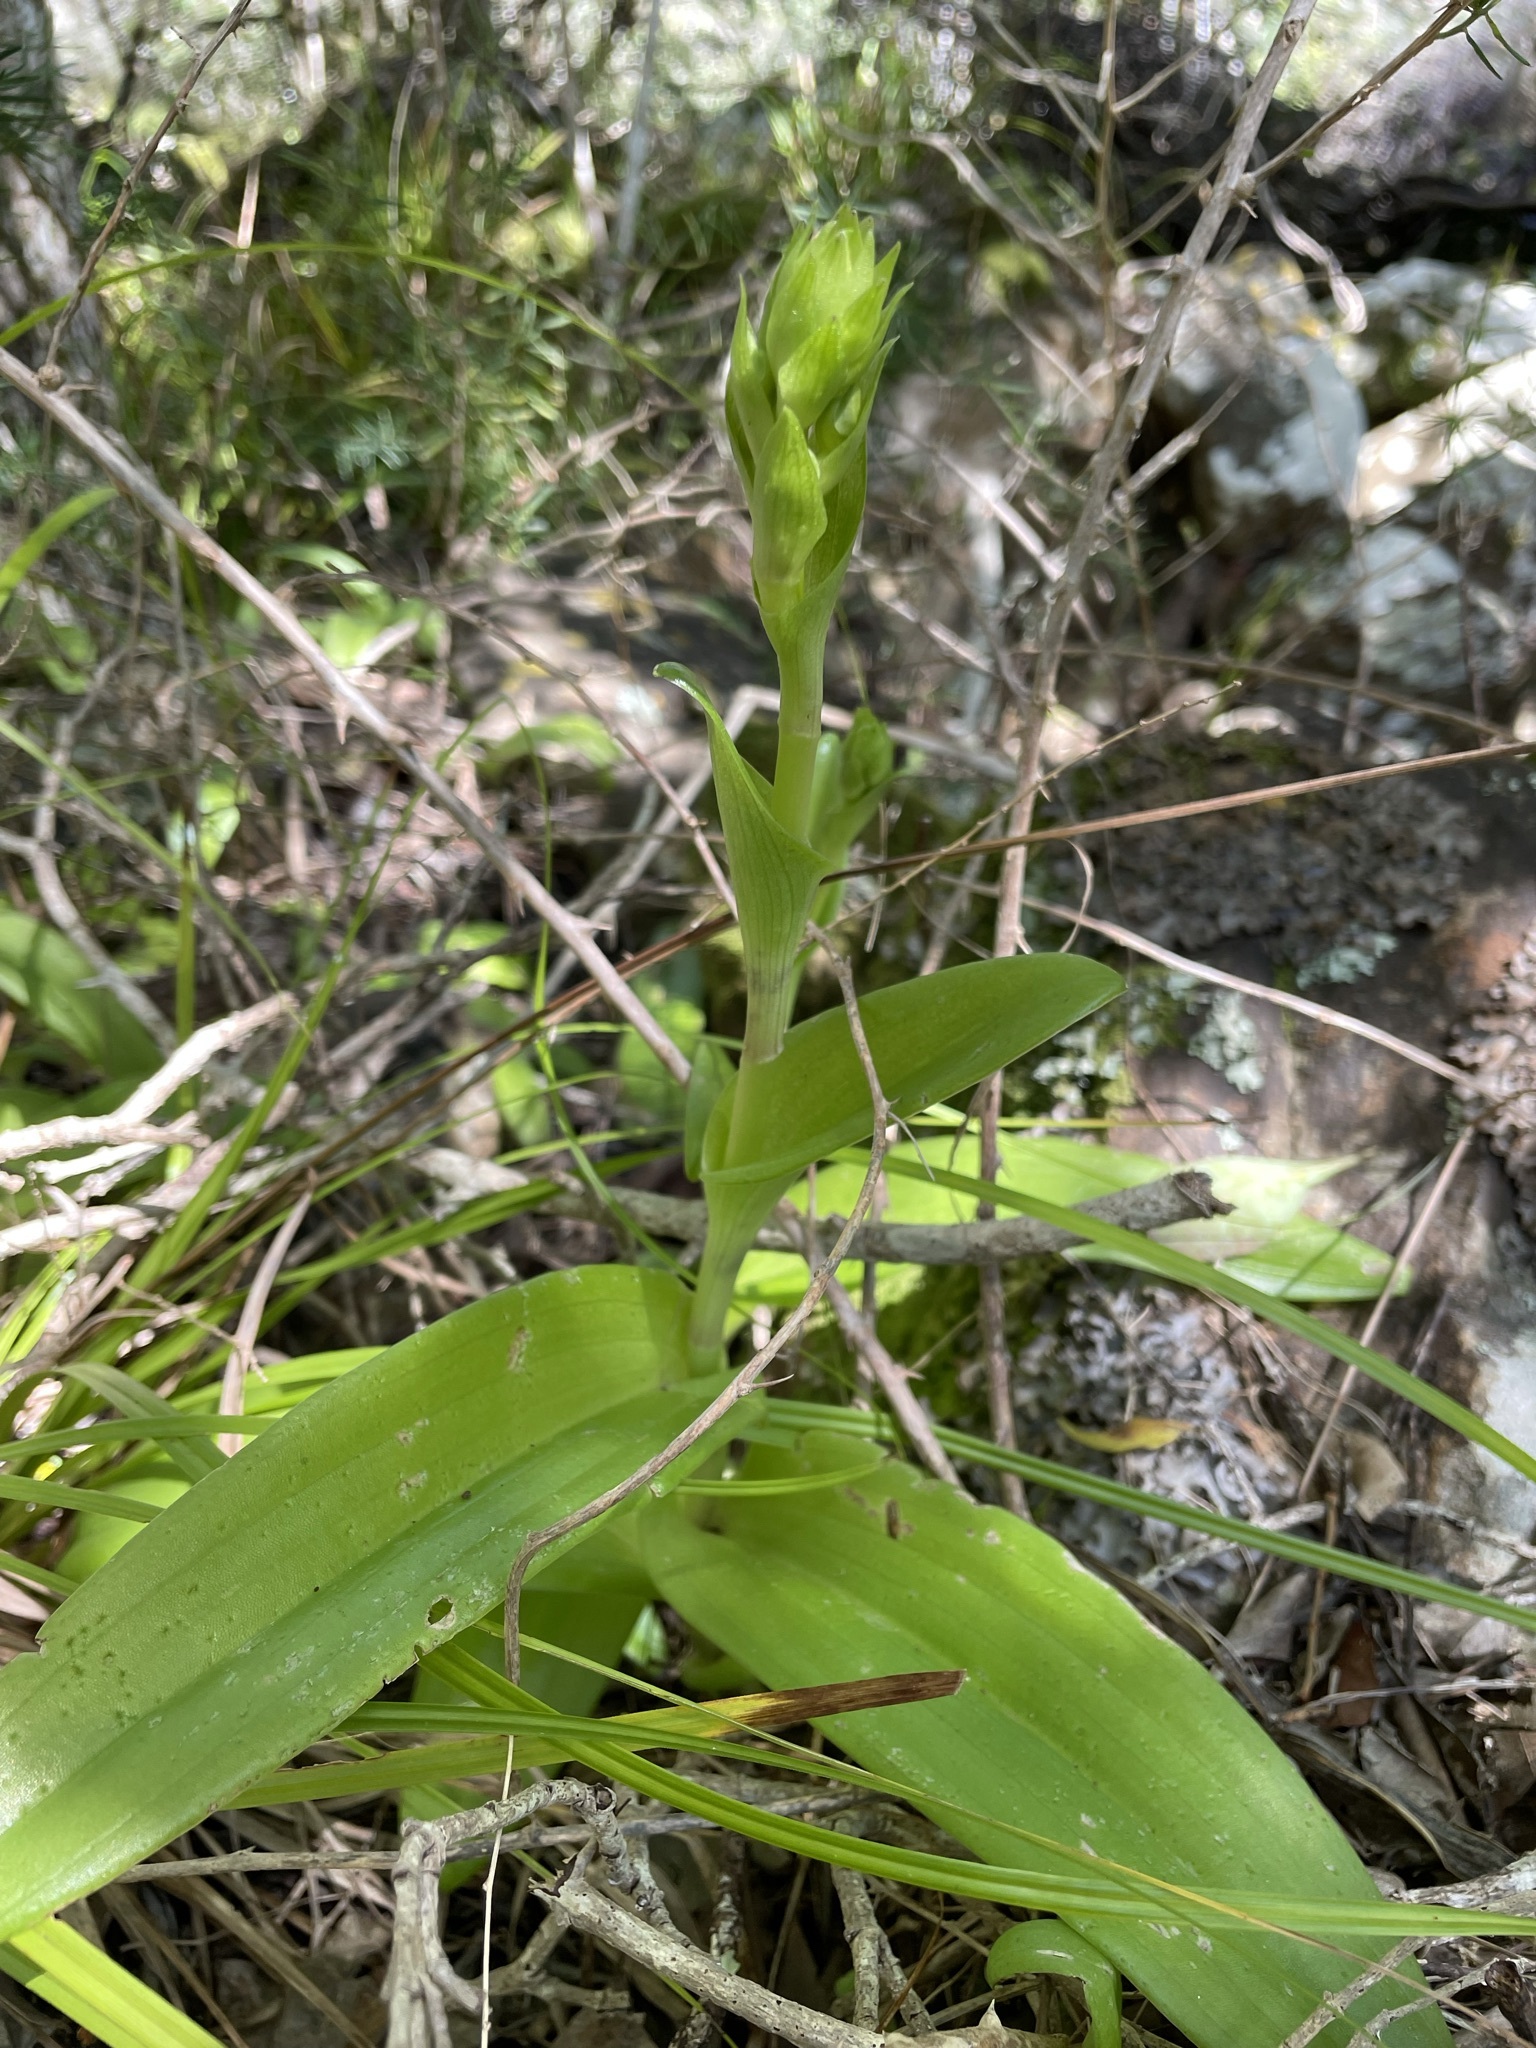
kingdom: Plantae
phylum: Tracheophyta
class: Liliopsida
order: Asparagales
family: Orchidaceae
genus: Satyrium
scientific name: Satyrium odorum
